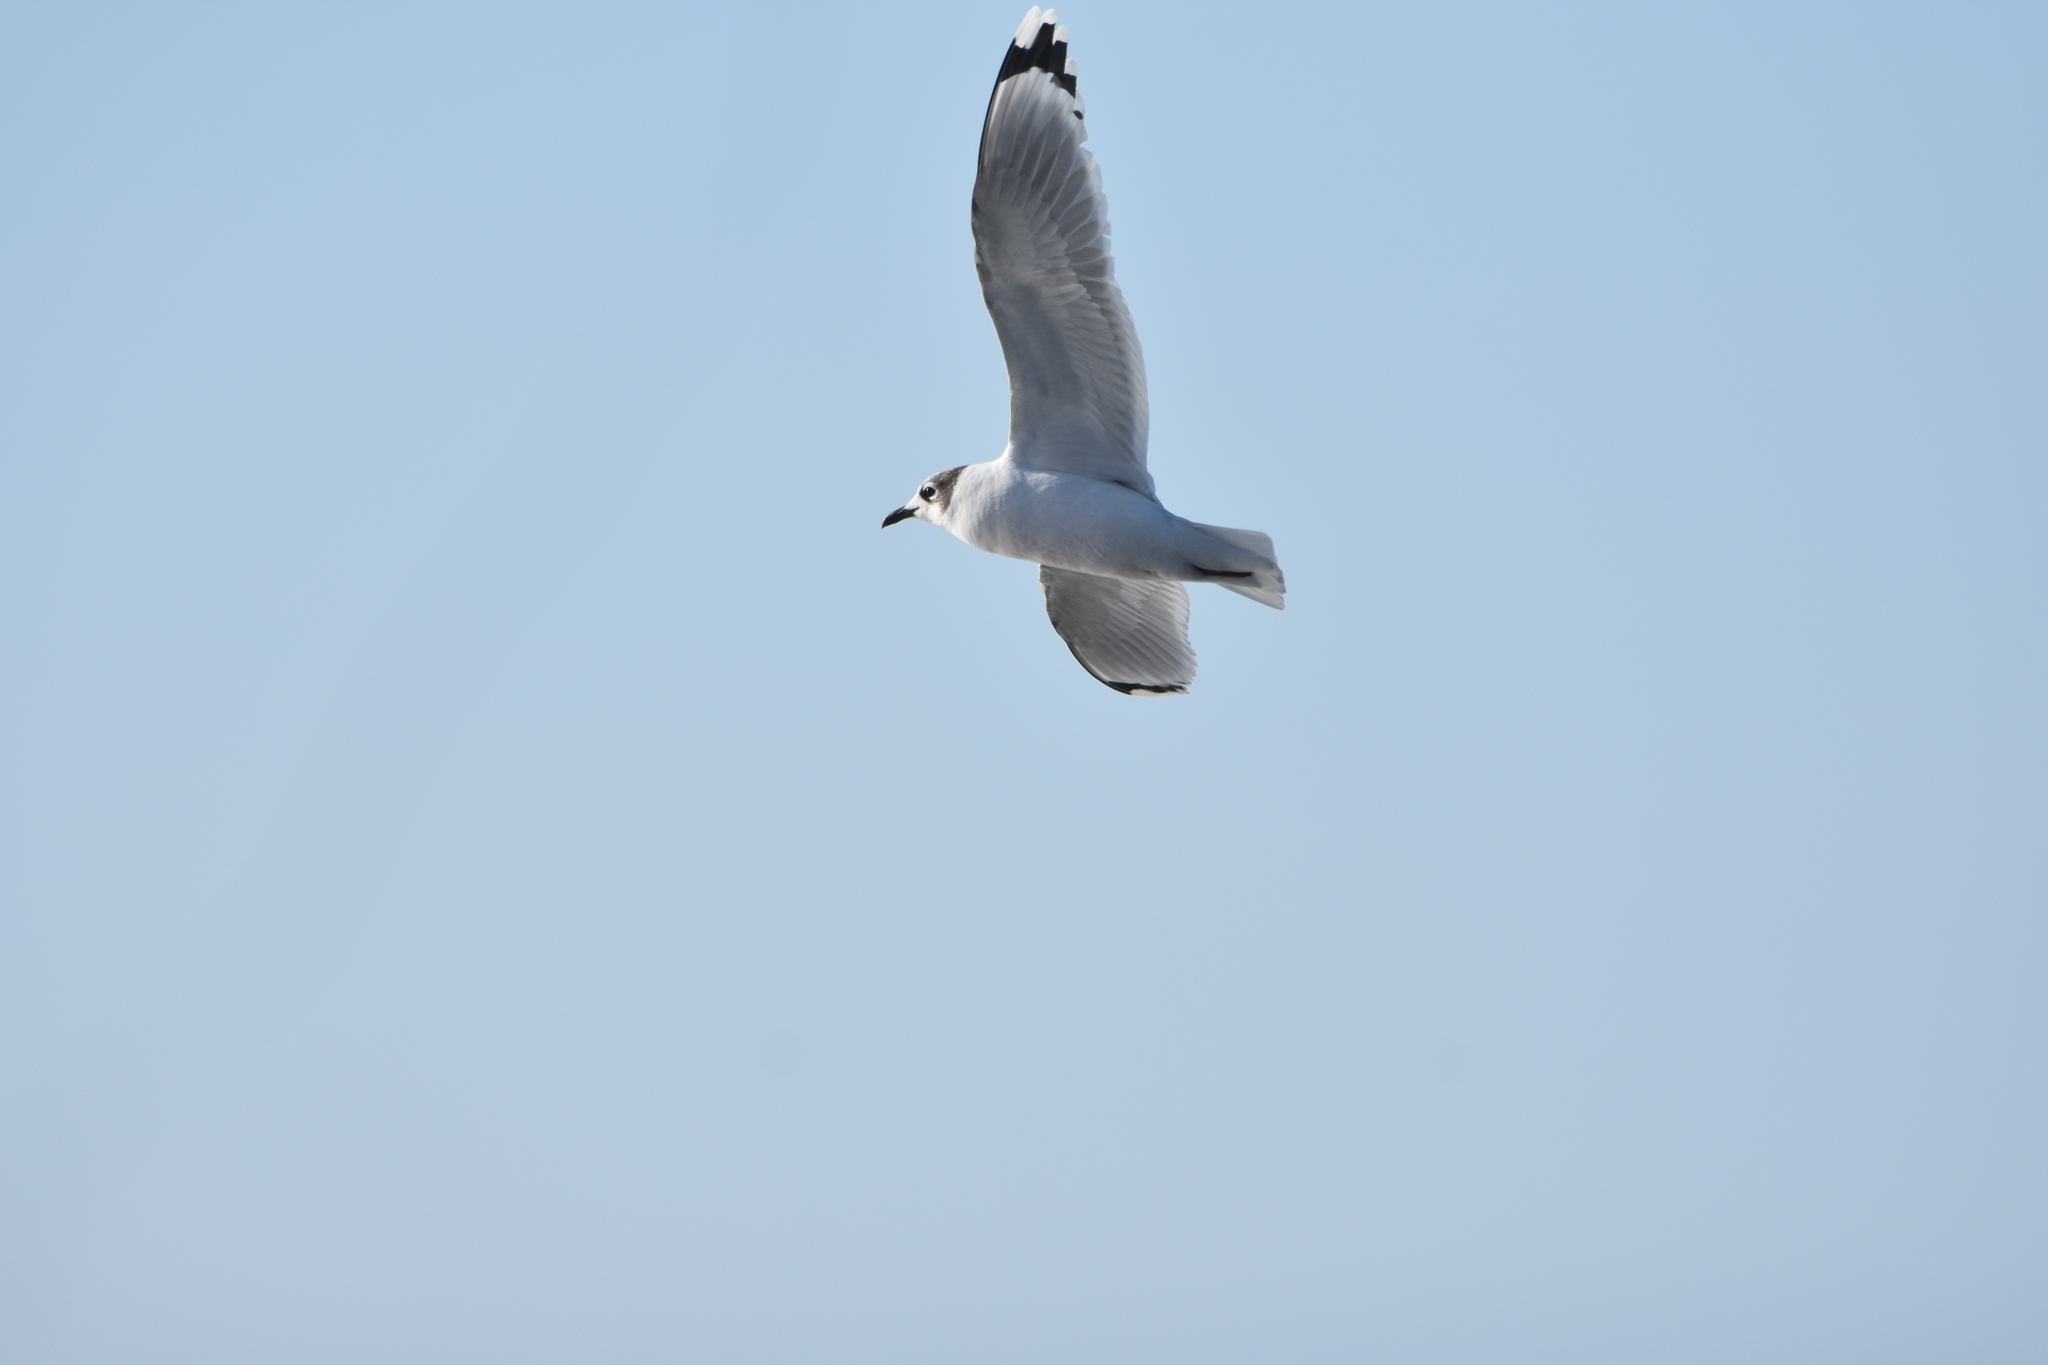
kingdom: Animalia
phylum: Chordata
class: Aves
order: Charadriiformes
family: Laridae
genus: Chroicocephalus
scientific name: Chroicocephalus serranus
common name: Andean gull
